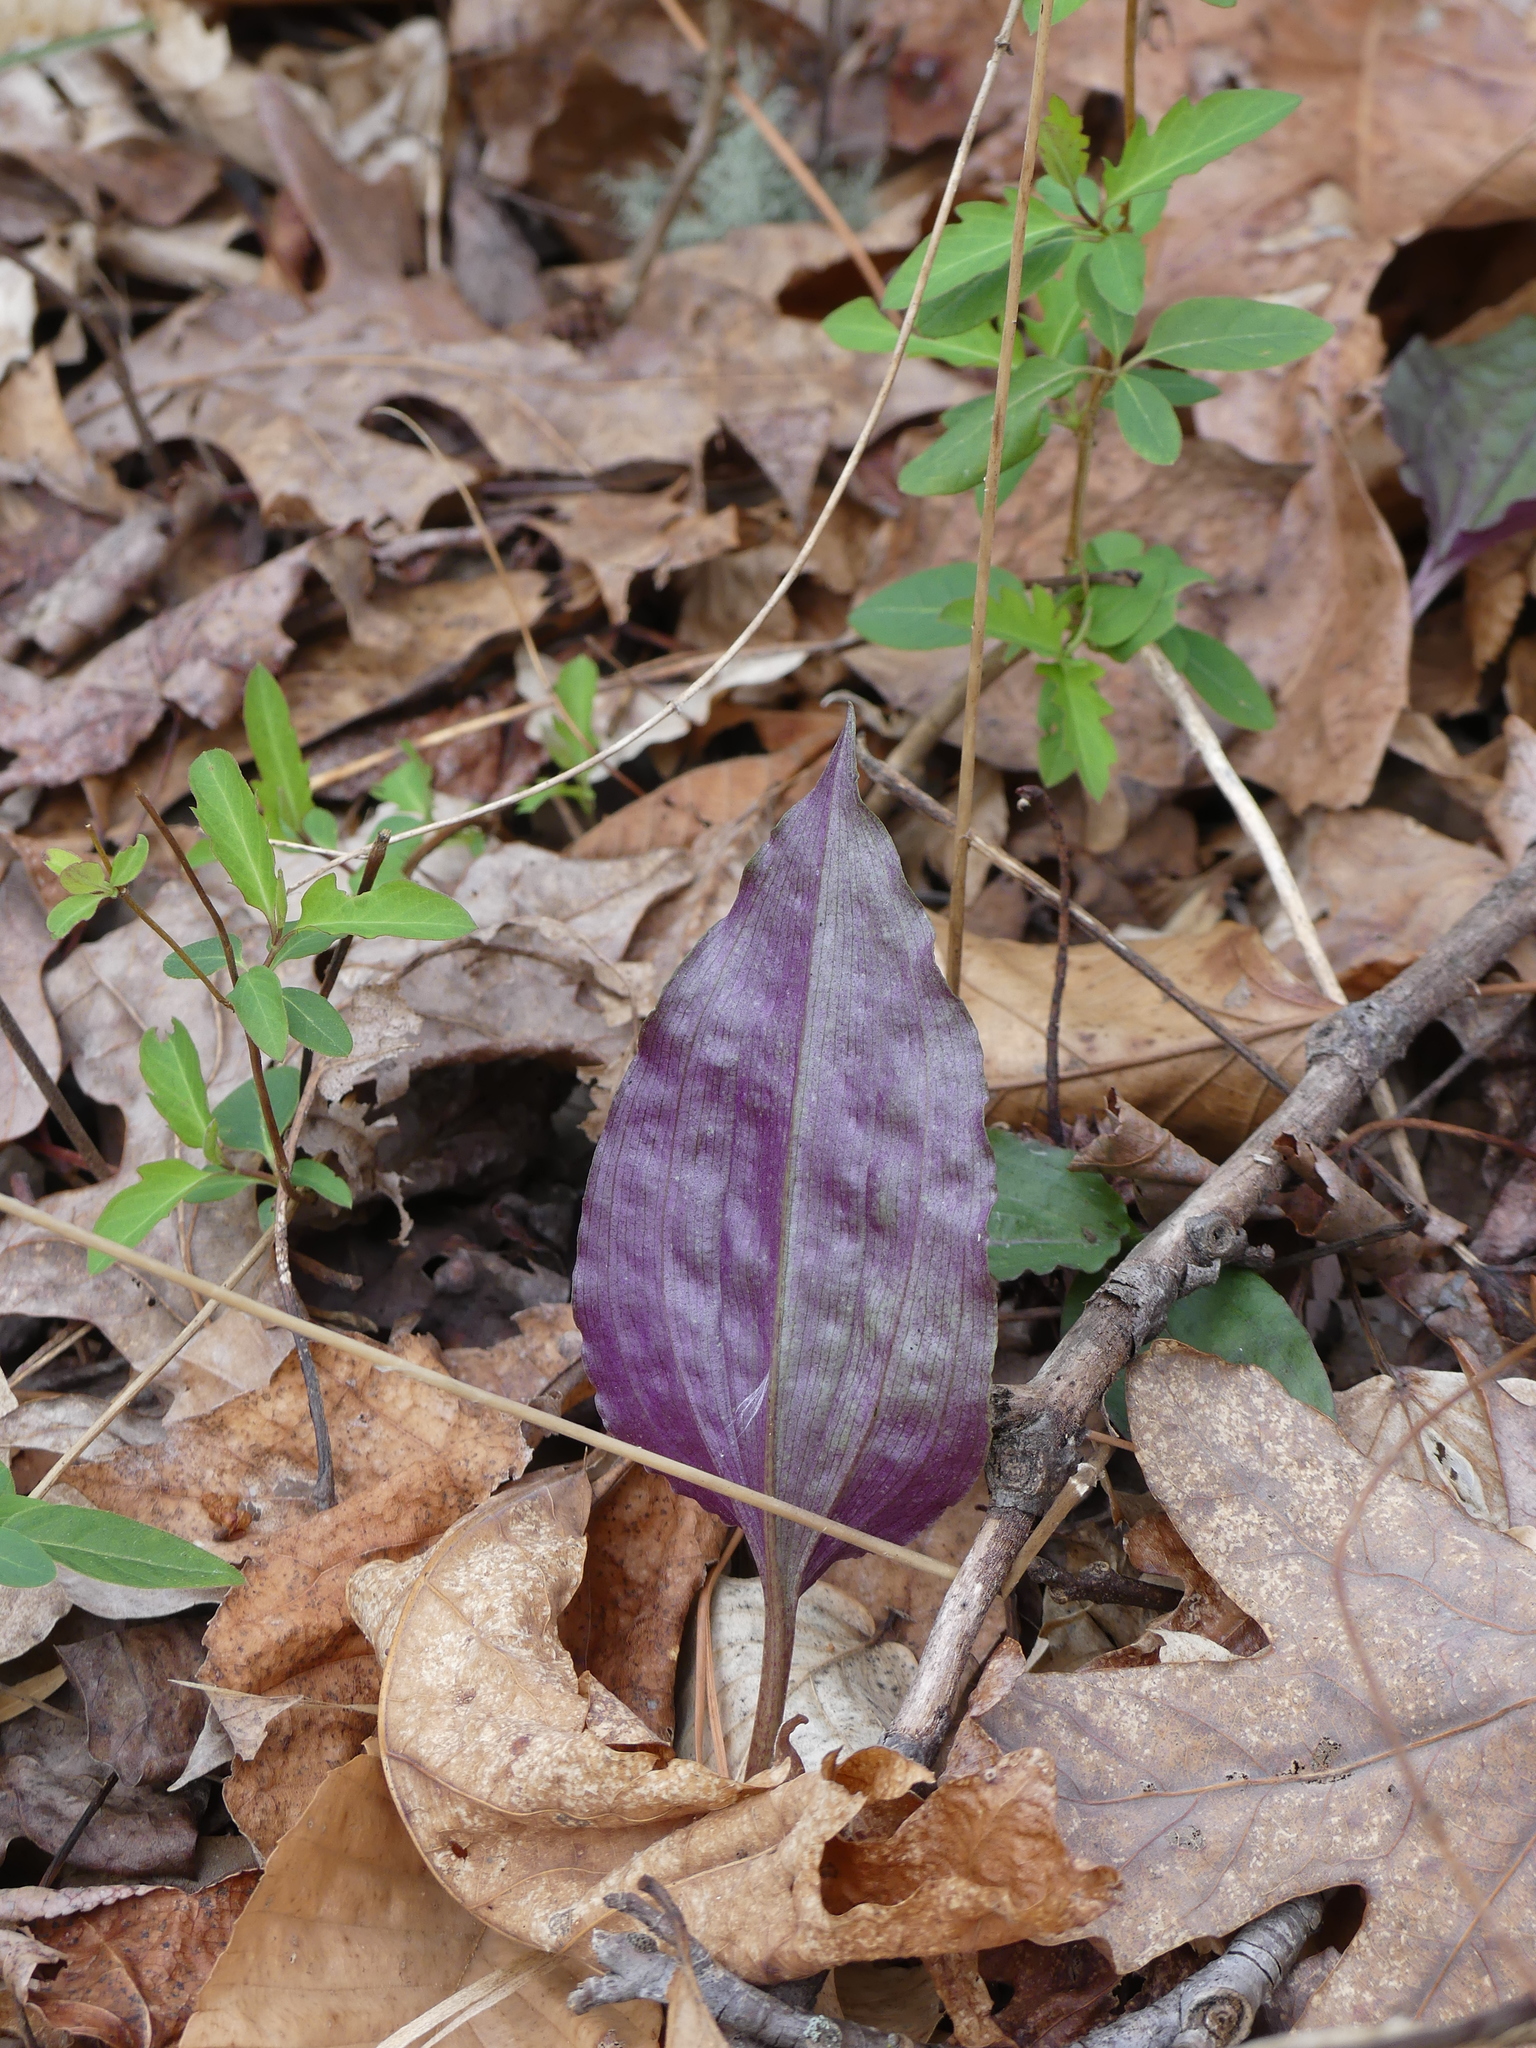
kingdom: Plantae
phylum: Tracheophyta
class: Liliopsida
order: Asparagales
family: Orchidaceae
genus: Tipularia
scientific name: Tipularia discolor
